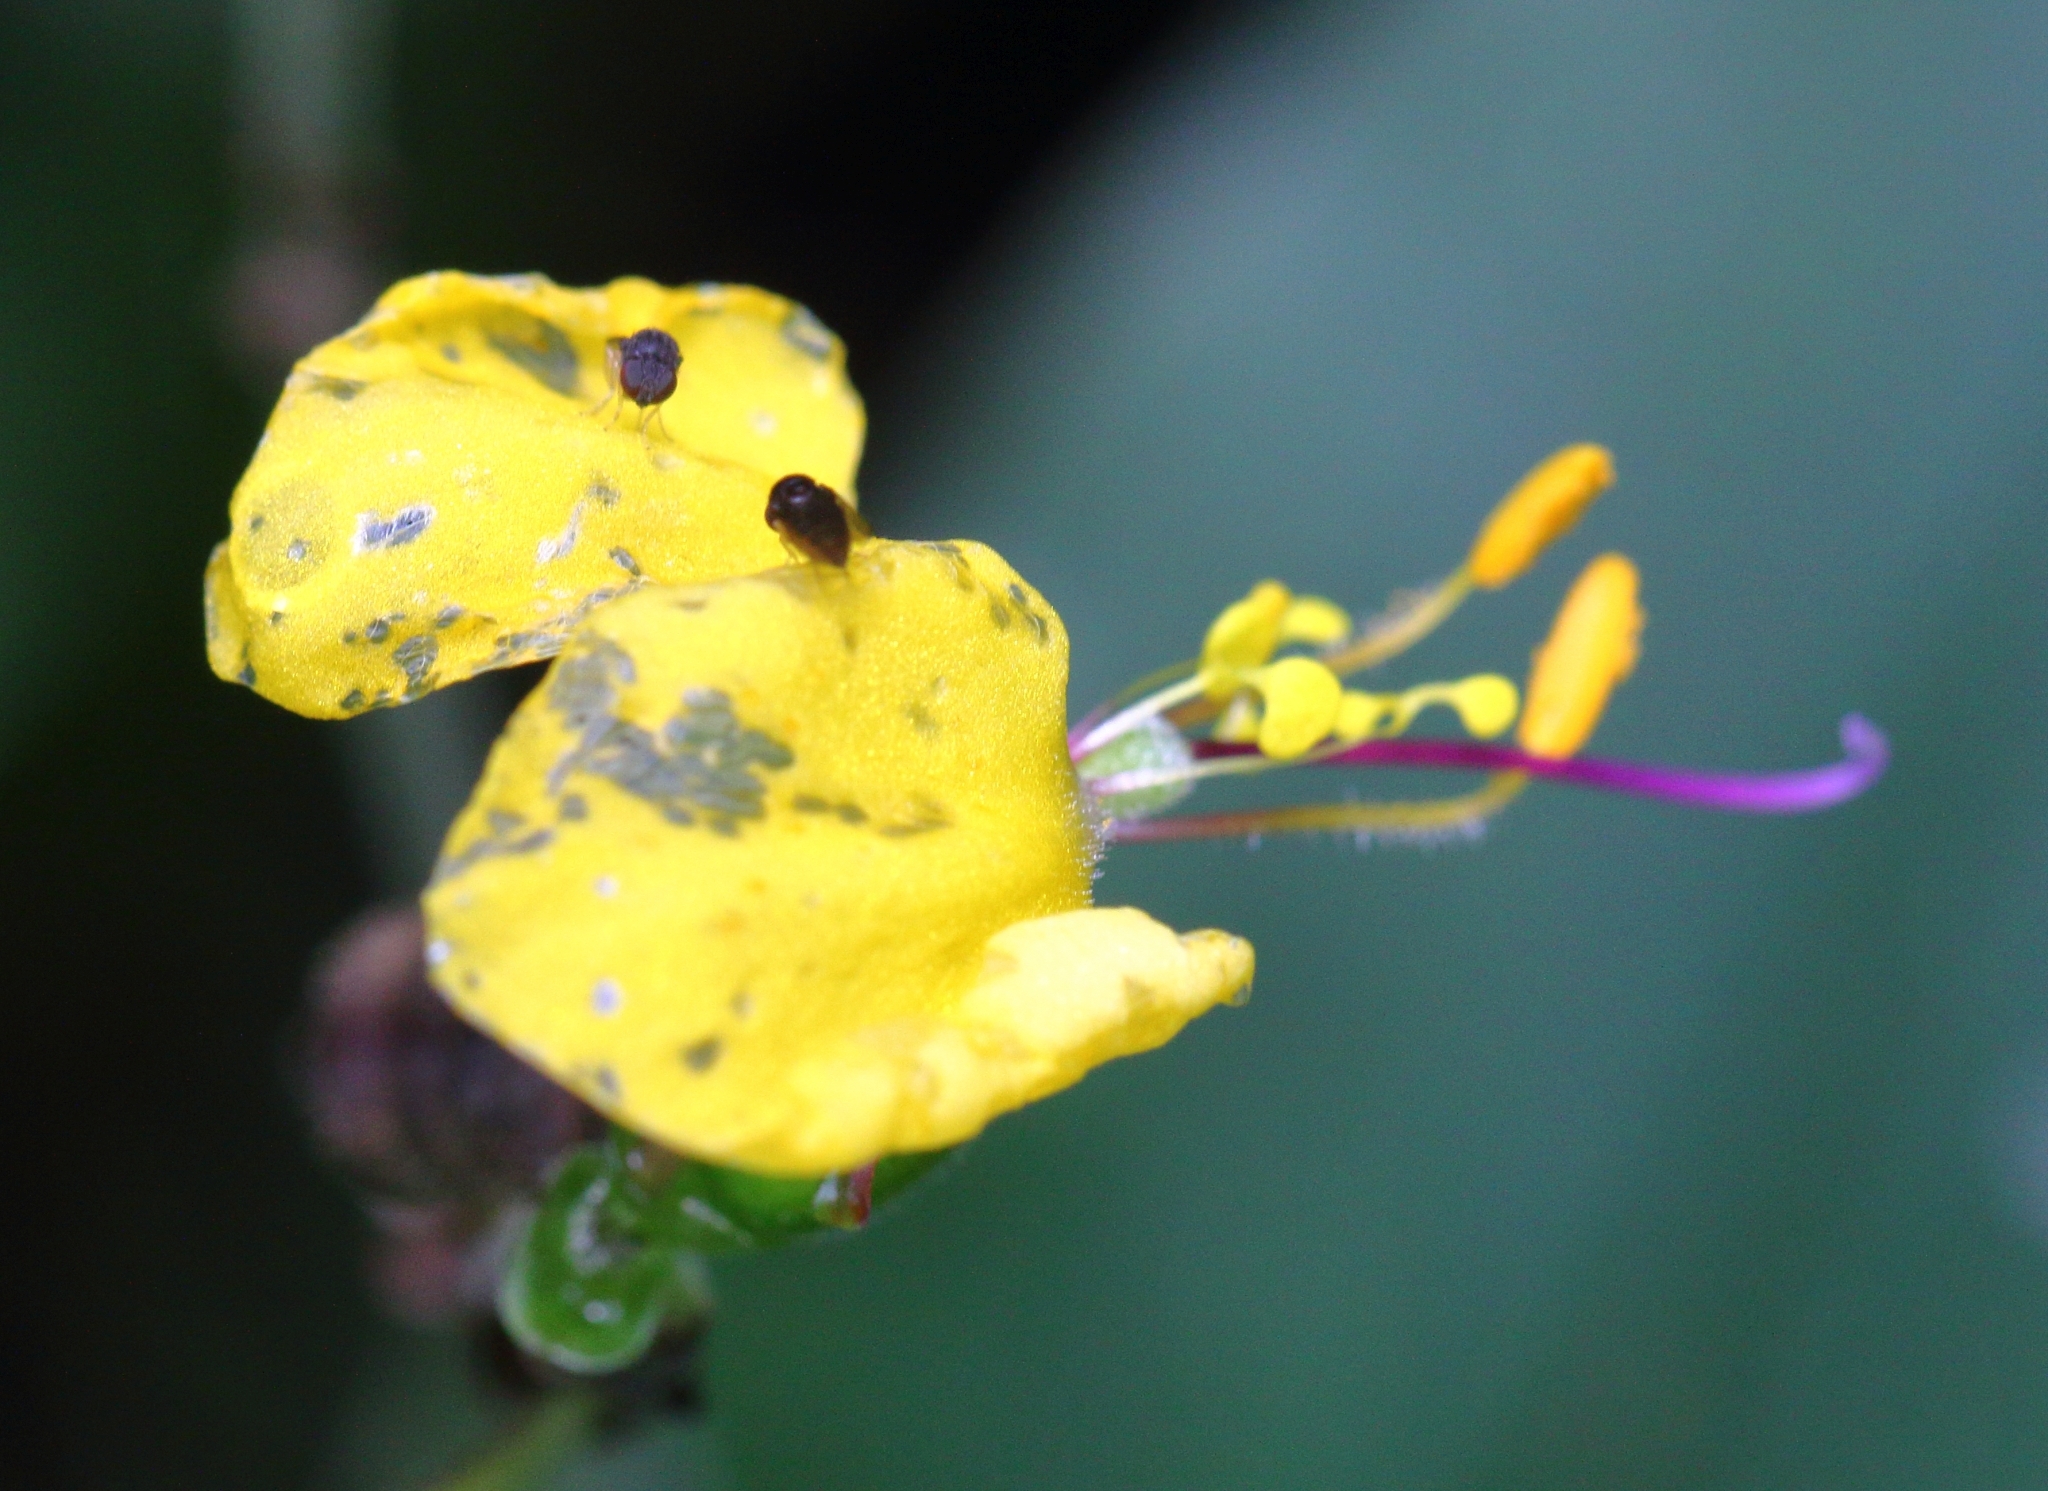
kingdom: Plantae
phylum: Tracheophyta
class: Liliopsida
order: Commelinales
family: Commelinaceae
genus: Aneilema
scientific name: Aneilema aequinoctiale
